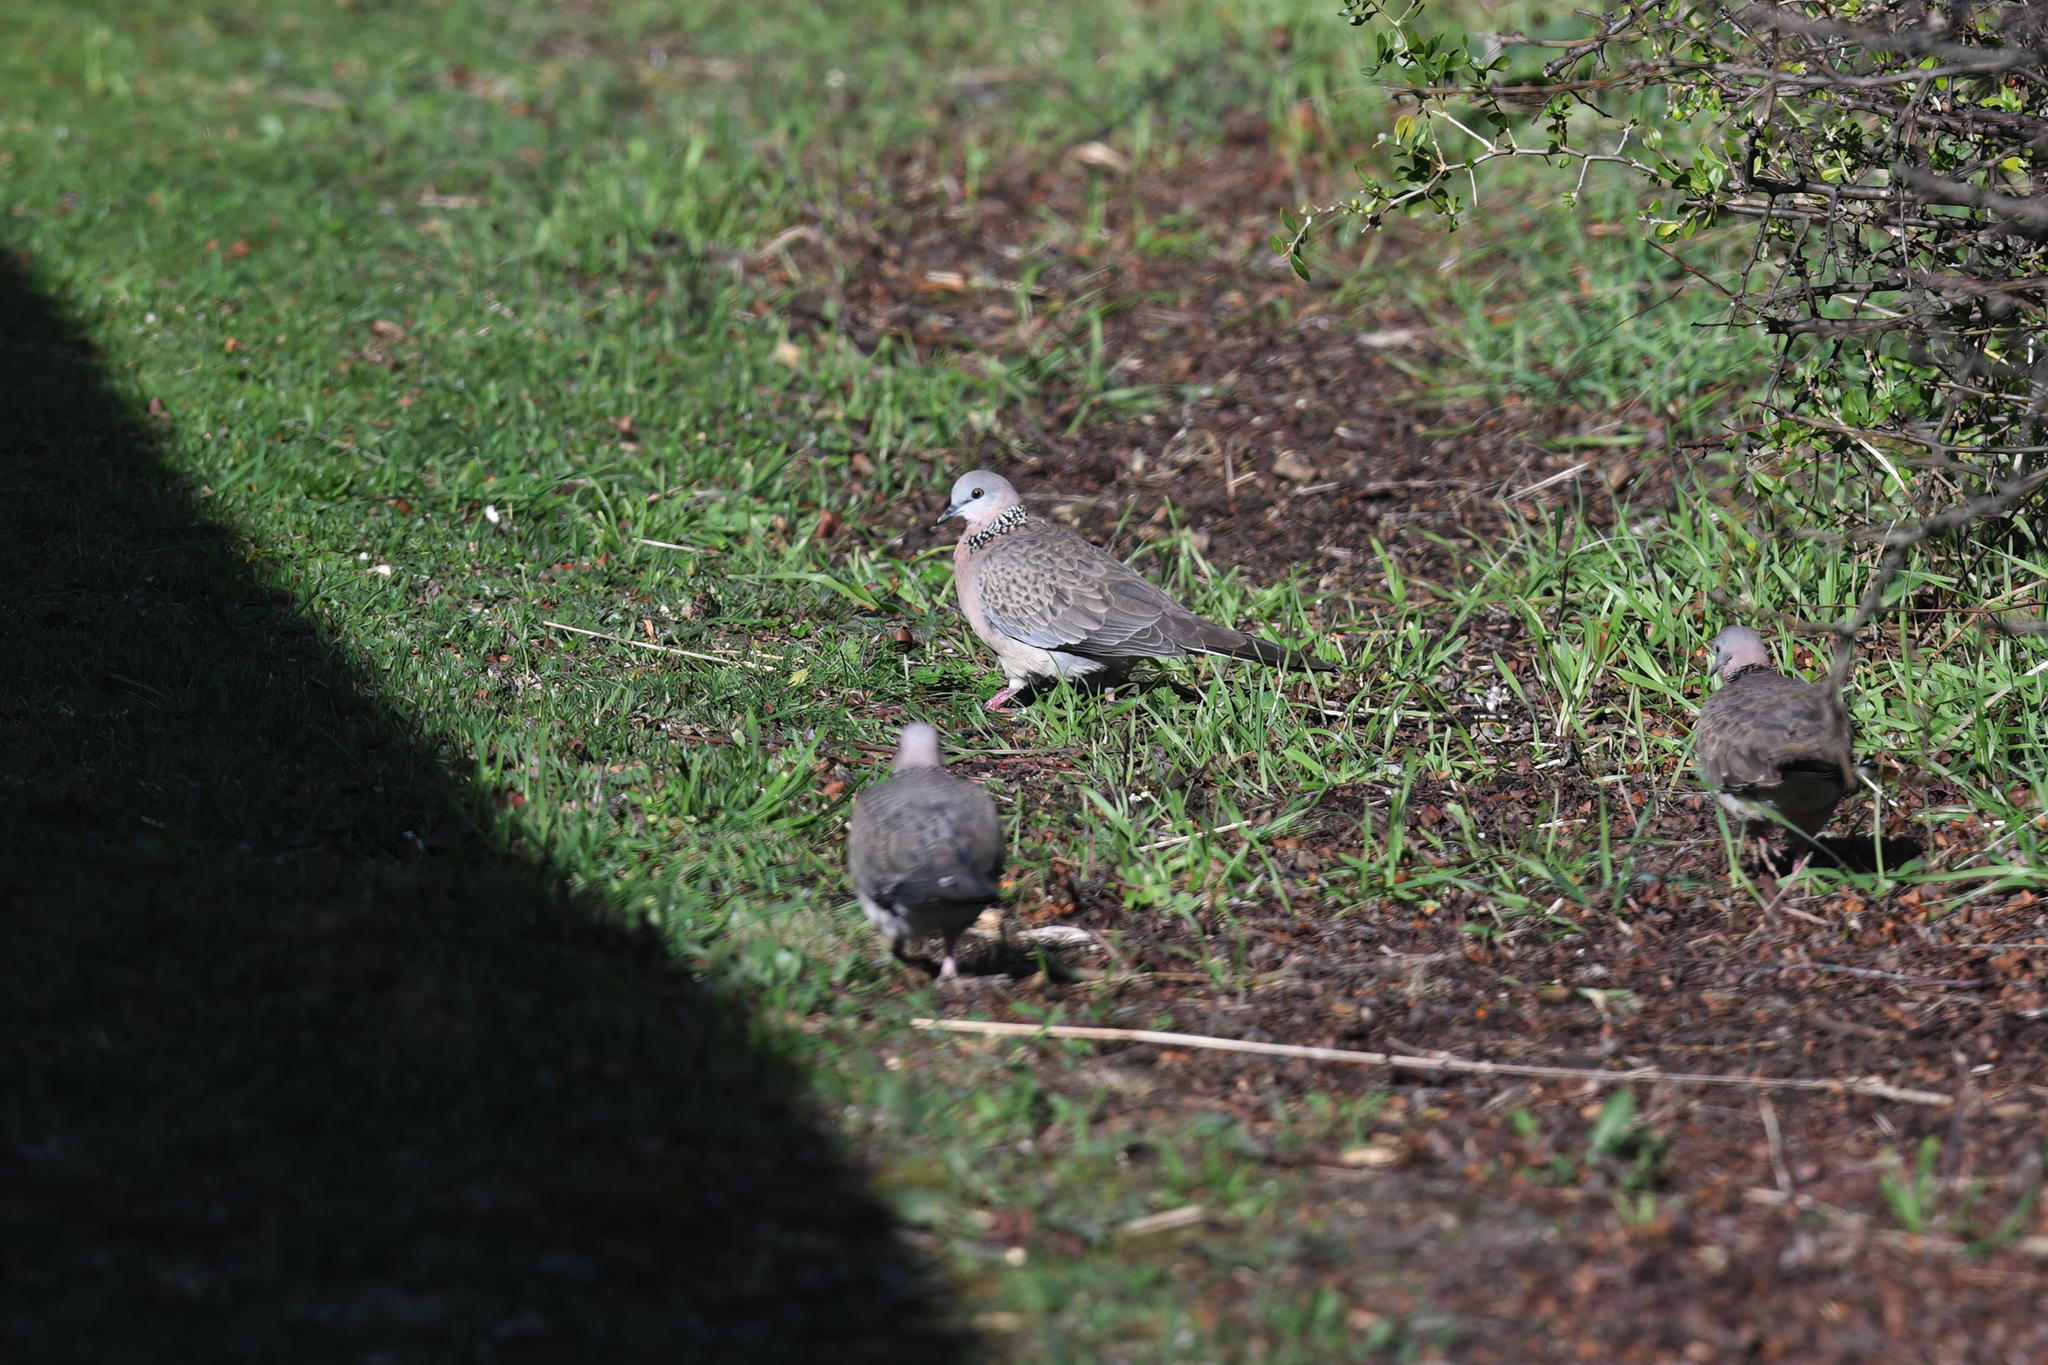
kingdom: Animalia
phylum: Chordata
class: Aves
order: Columbiformes
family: Columbidae
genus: Spilopelia
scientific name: Spilopelia chinensis
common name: Spotted dove
